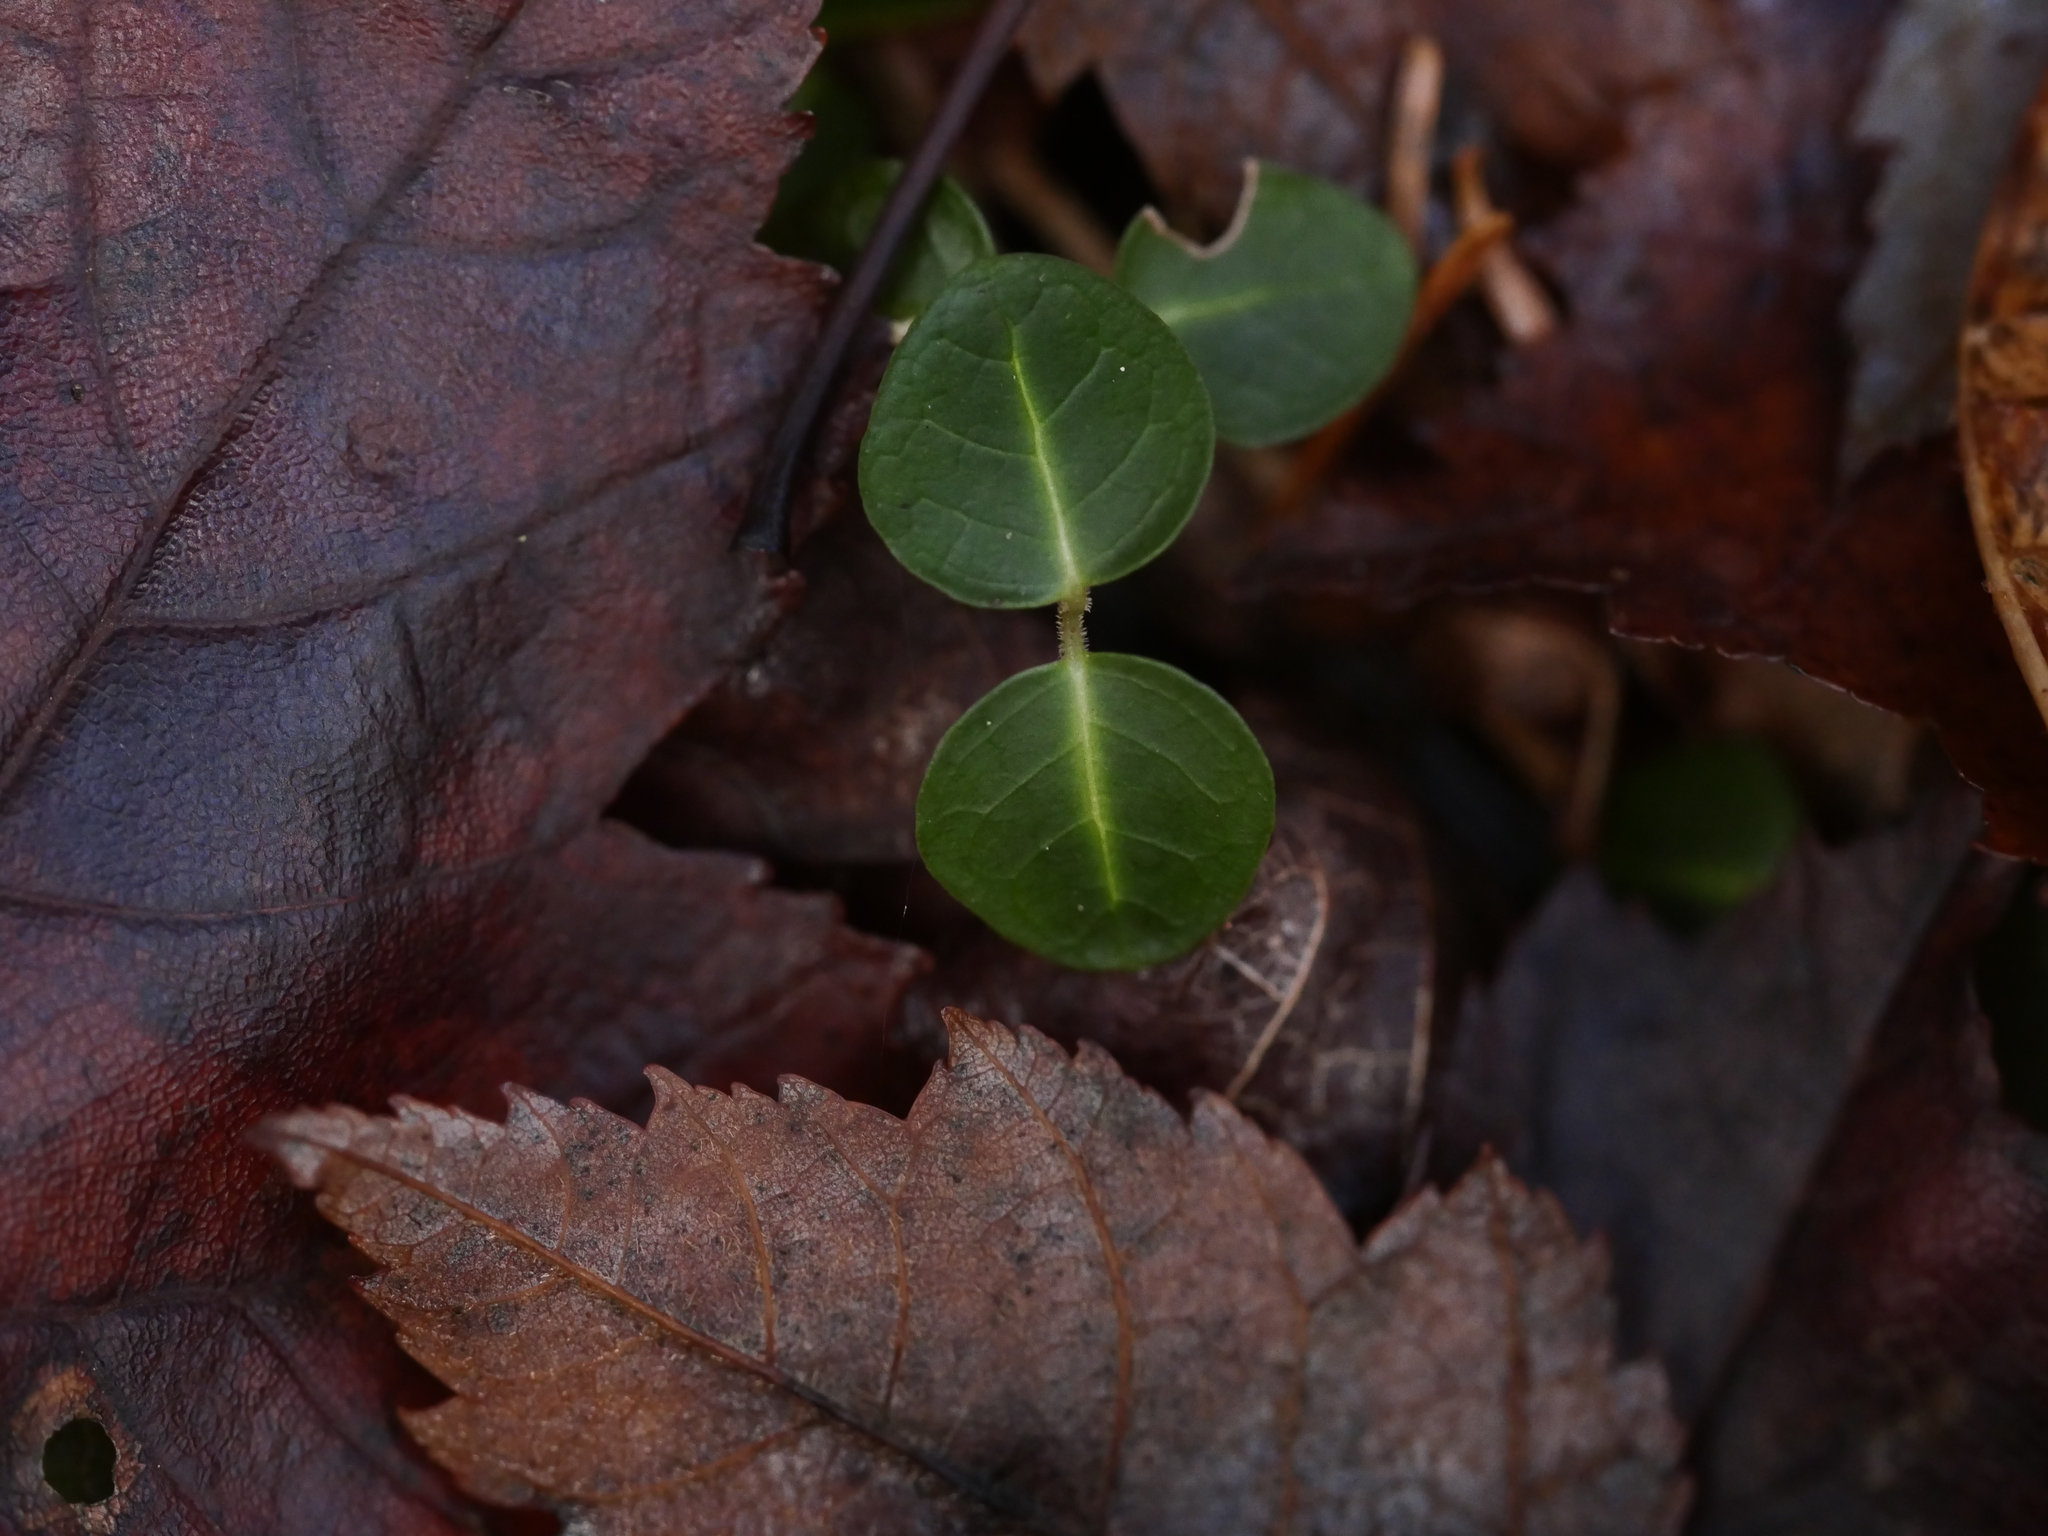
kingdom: Plantae
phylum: Tracheophyta
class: Magnoliopsida
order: Gentianales
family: Rubiaceae
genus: Mitchella
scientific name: Mitchella repens
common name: Partridge-berry
